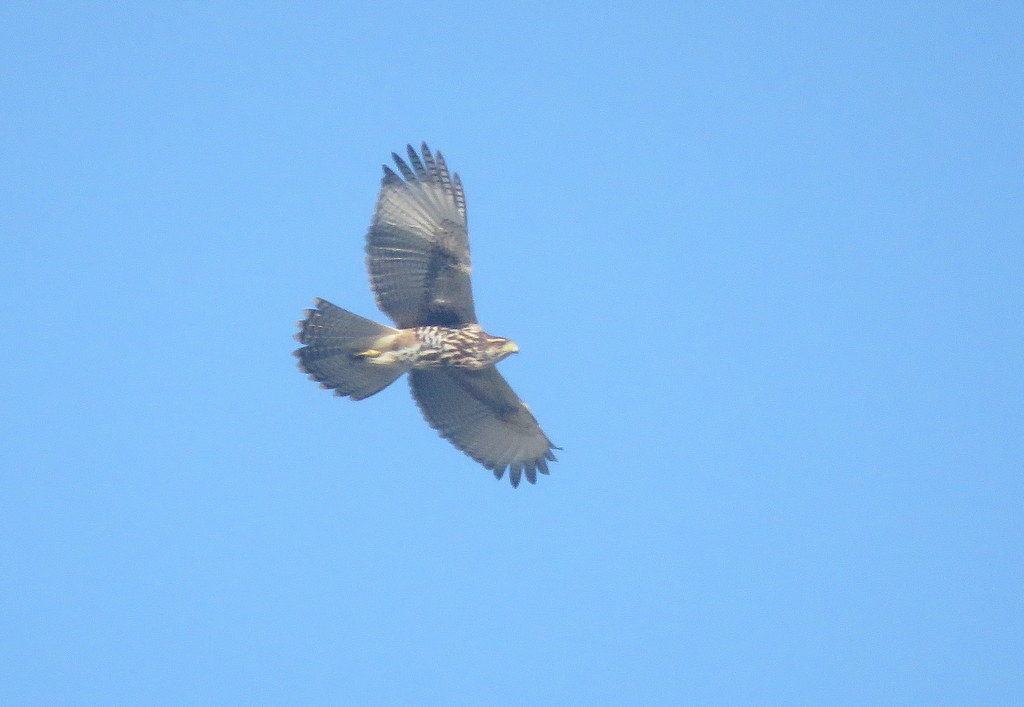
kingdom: Animalia
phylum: Chordata
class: Aves
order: Accipitriformes
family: Accipitridae
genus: Parabuteo
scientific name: Parabuteo unicinctus
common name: Harris's hawk
